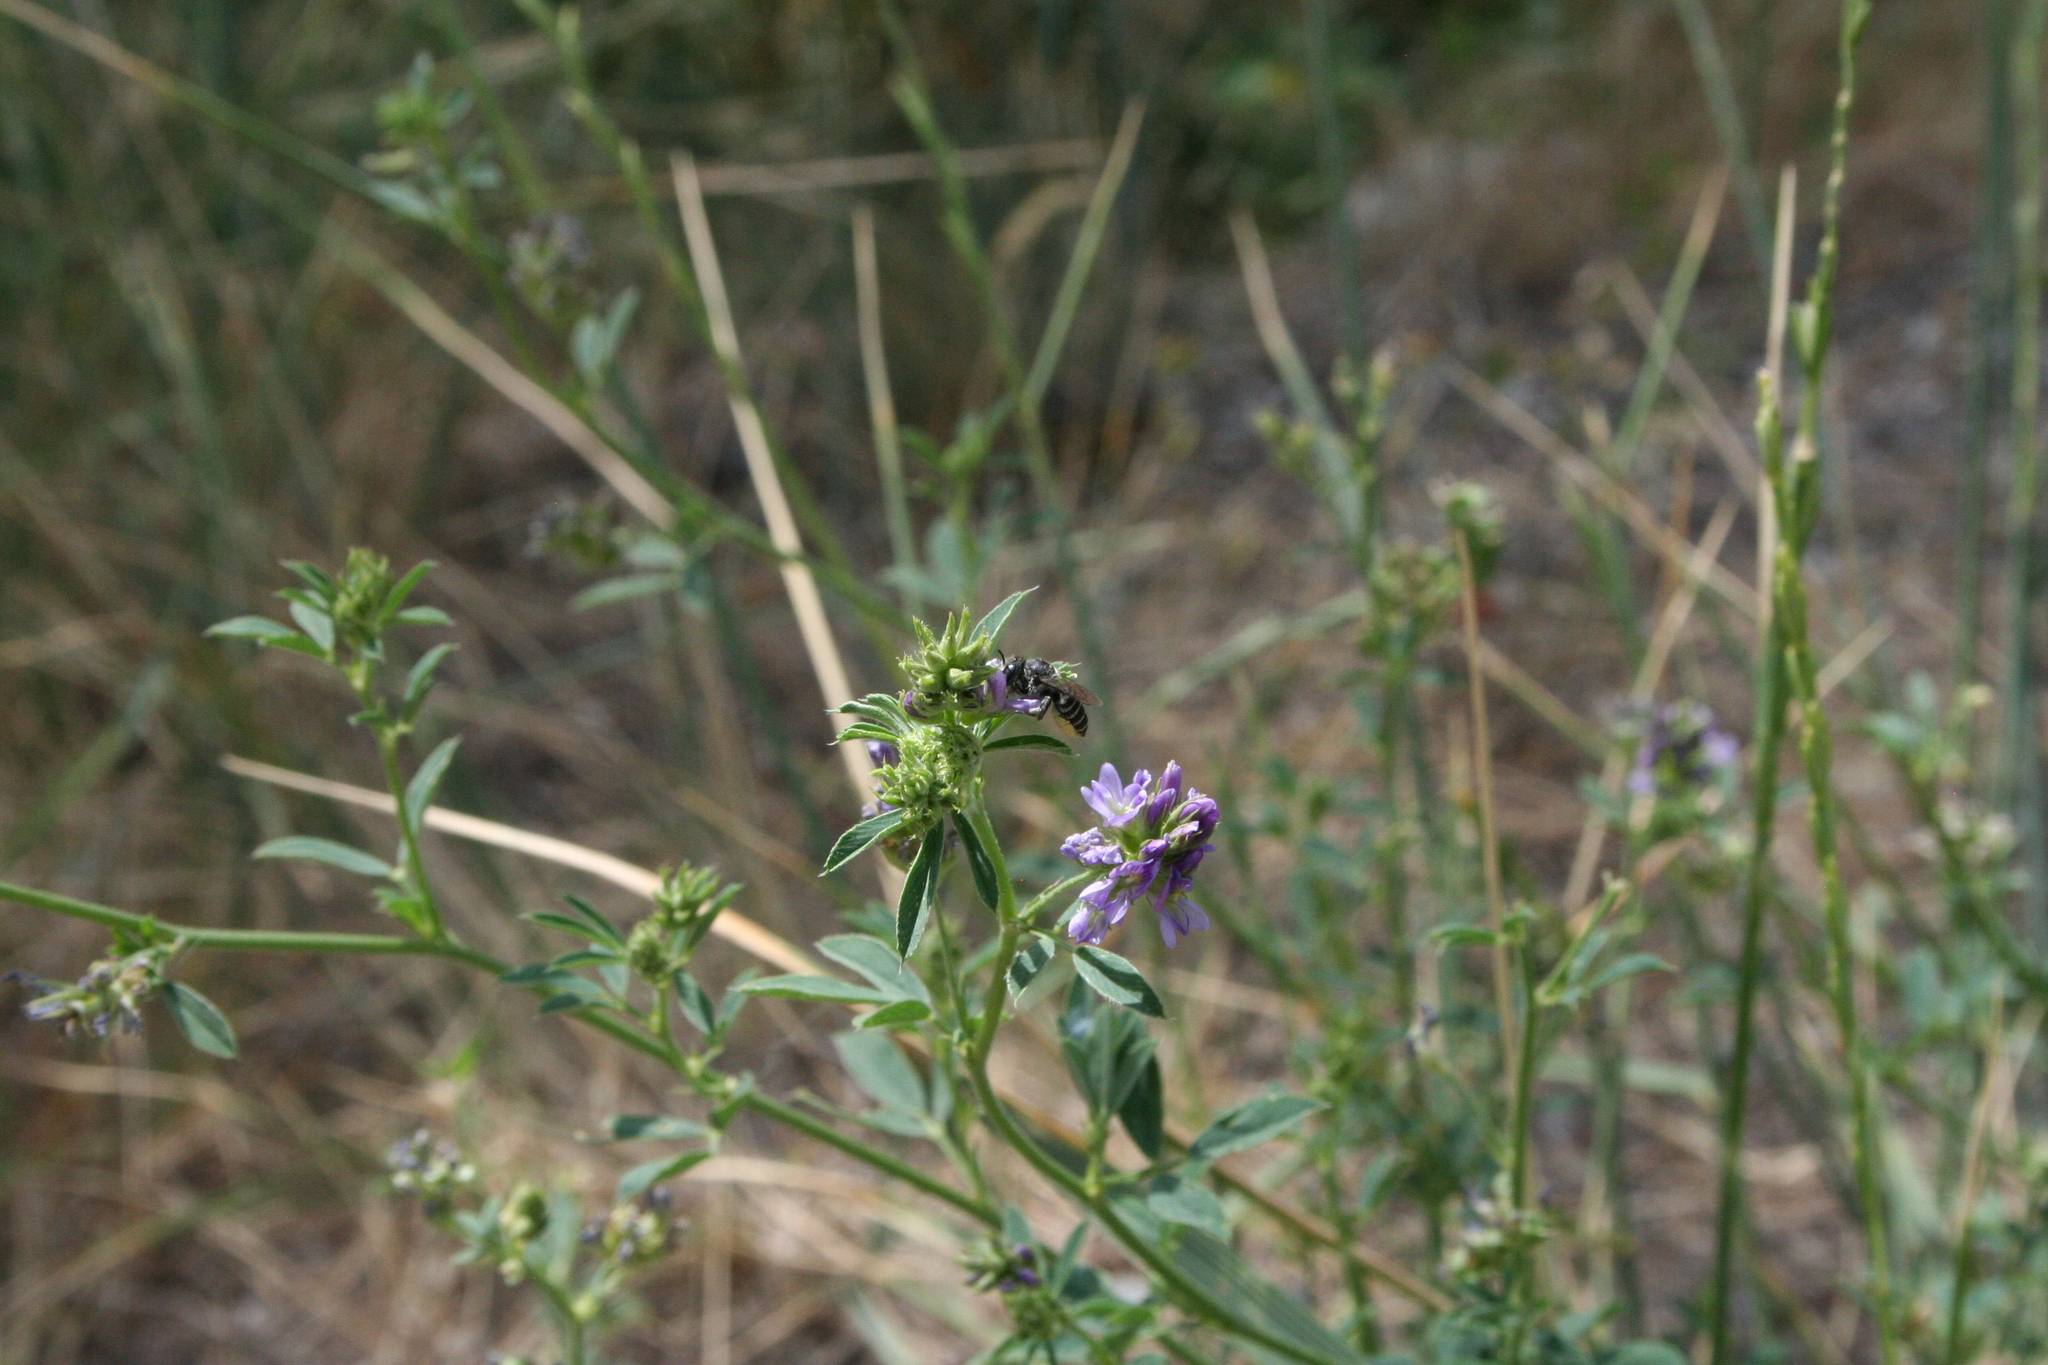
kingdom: Animalia
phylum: Arthropoda
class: Insecta
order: Hymenoptera
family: Megachilidae
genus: Megachile
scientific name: Megachile
